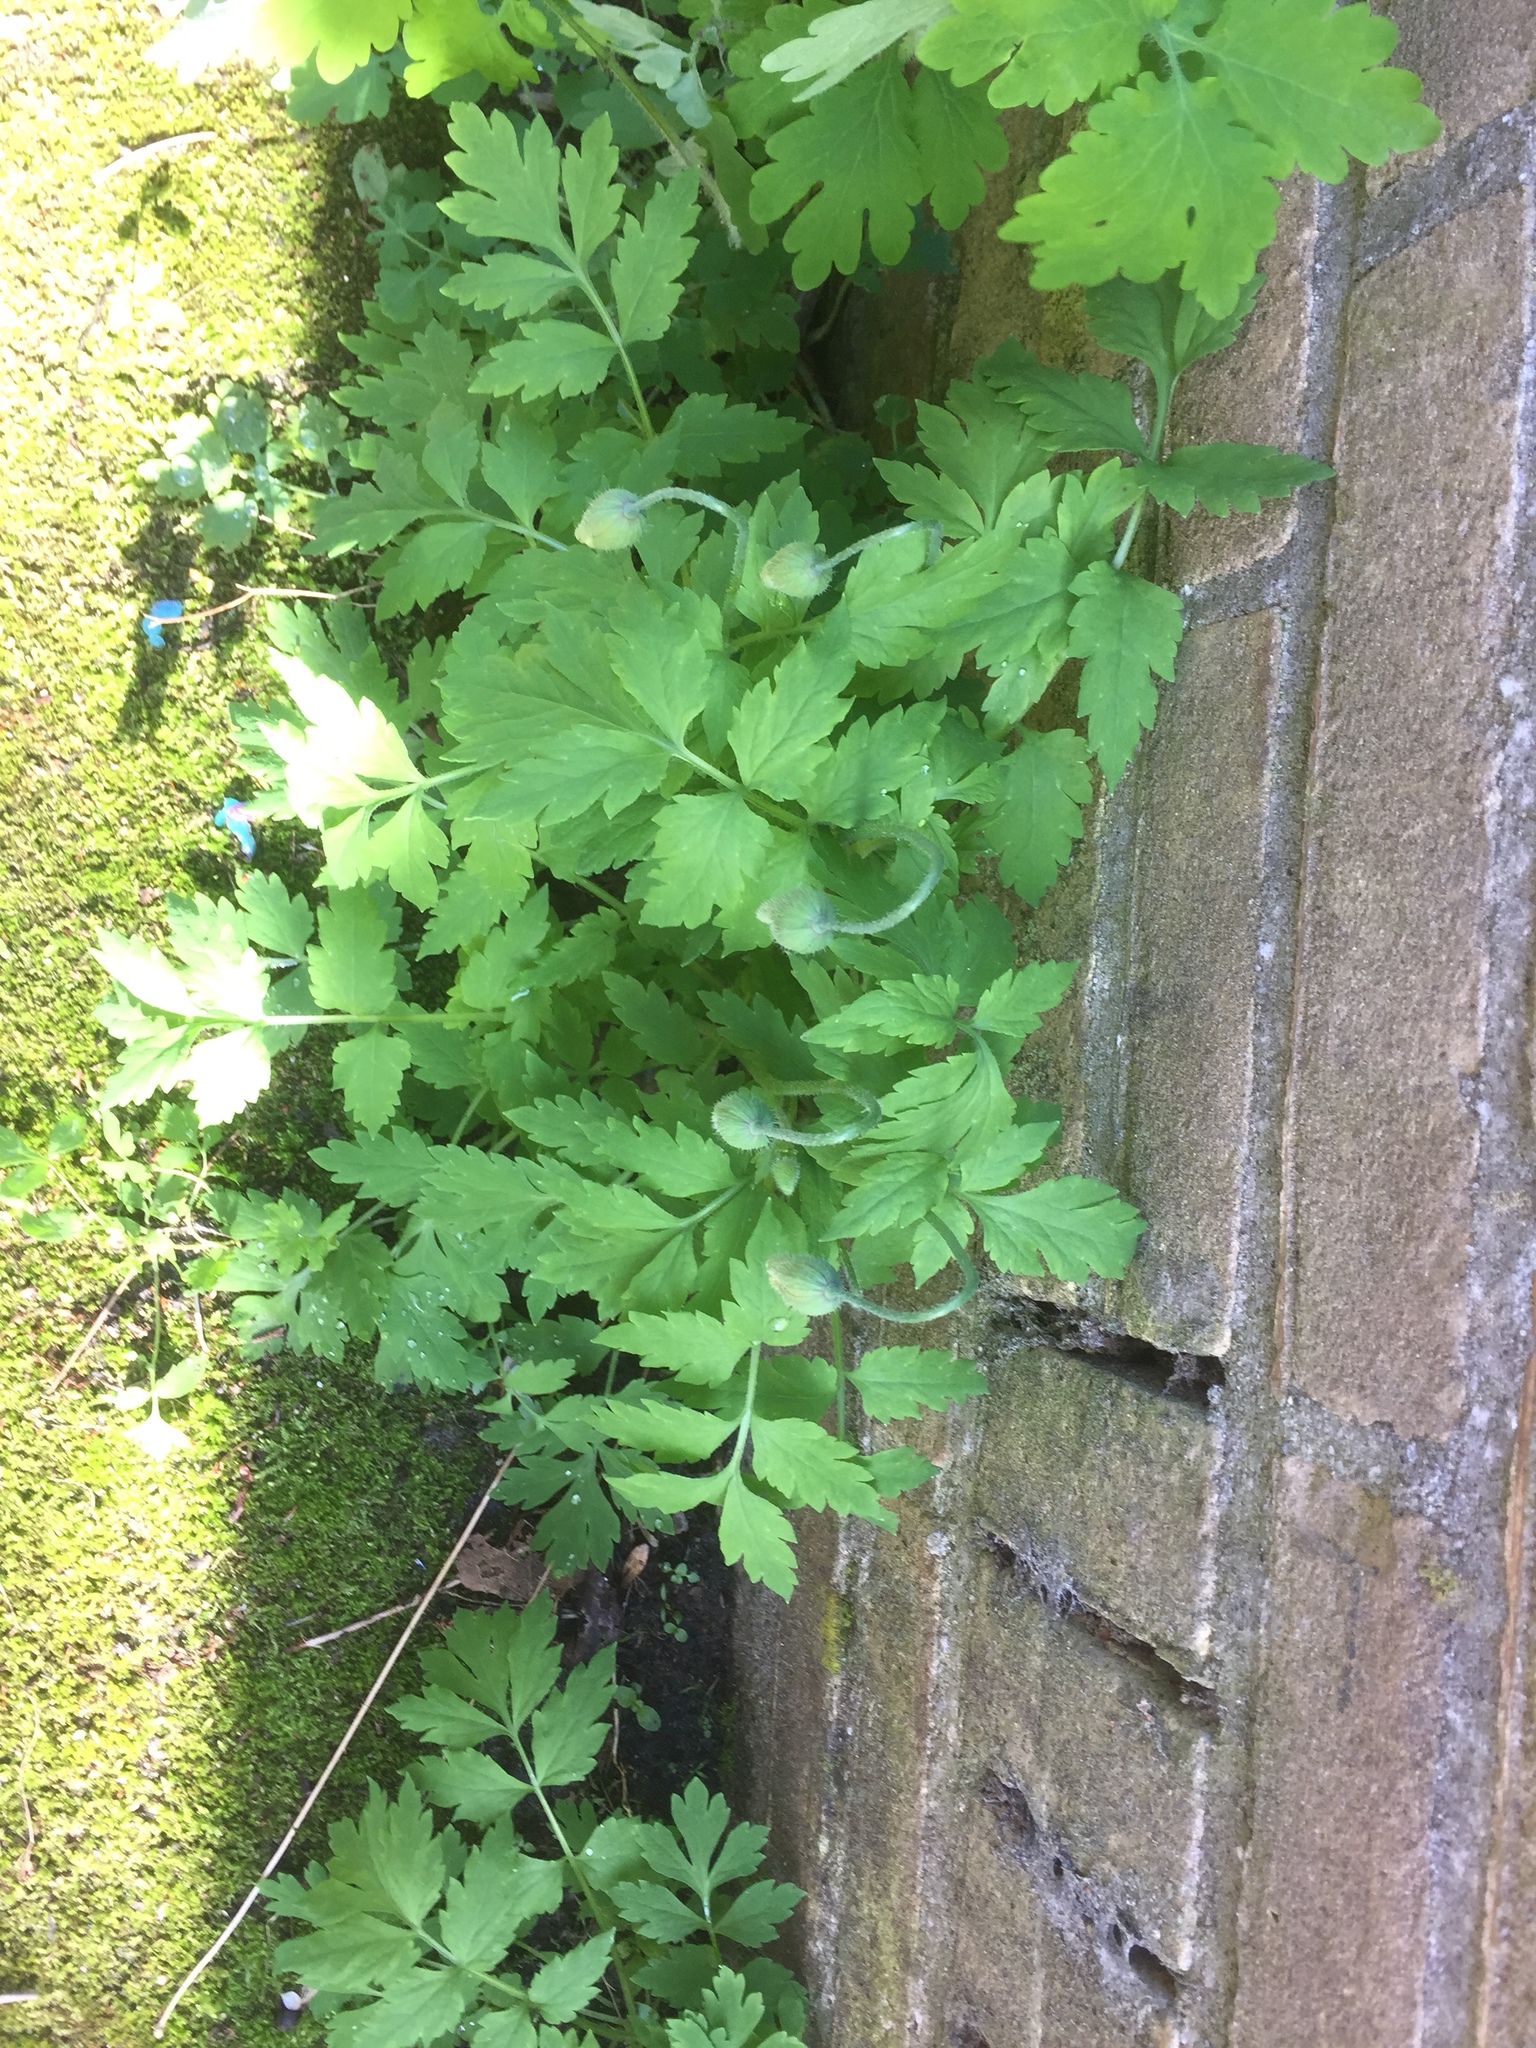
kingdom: Plantae
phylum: Tracheophyta
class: Magnoliopsida
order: Ranunculales
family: Papaveraceae
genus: Papaver
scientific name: Papaver cambricum
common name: Poppy
